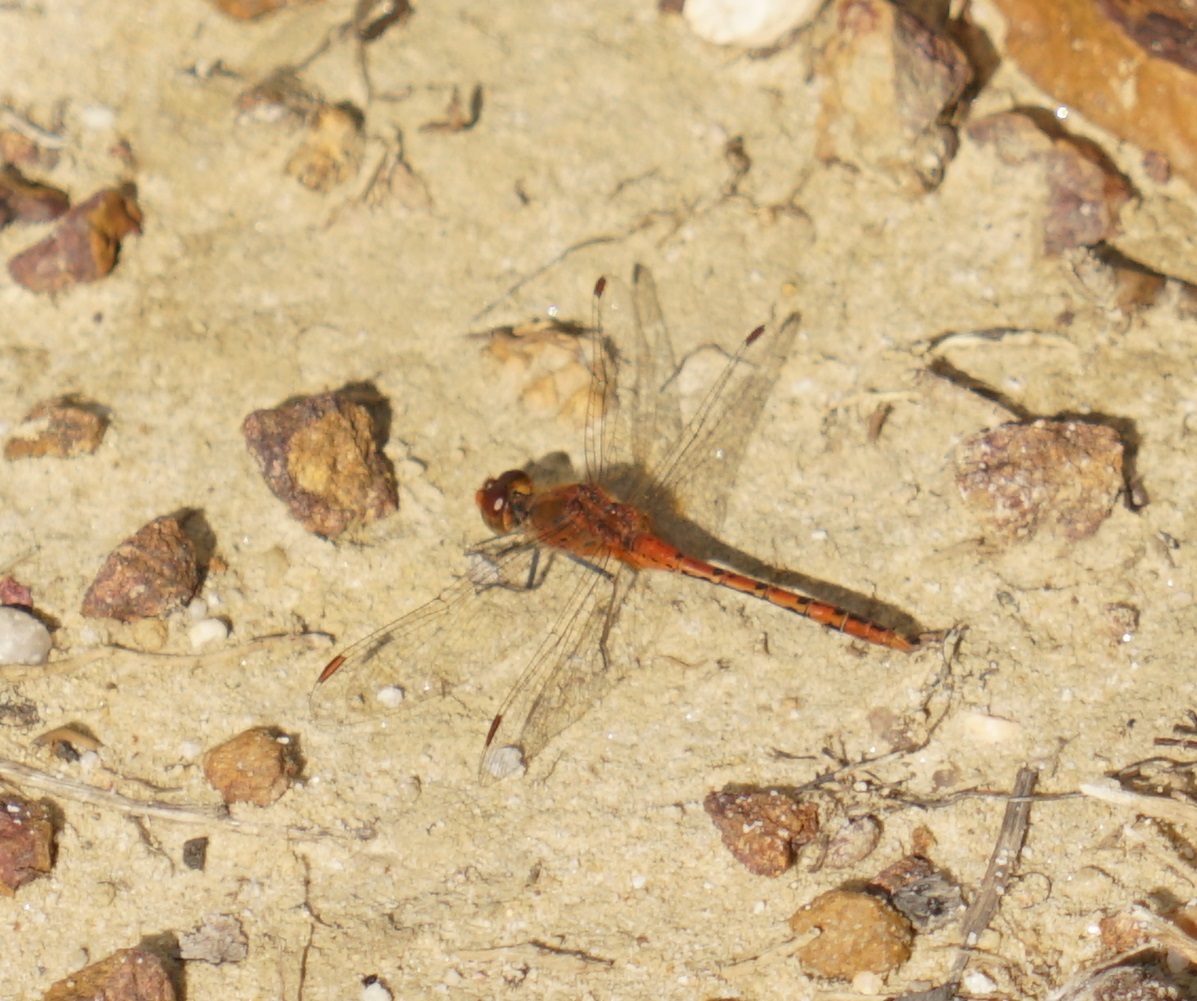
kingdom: Animalia
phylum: Arthropoda
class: Insecta
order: Odonata
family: Libellulidae
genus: Diplacodes
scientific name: Diplacodes bipunctata
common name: Red percher dragonfly
